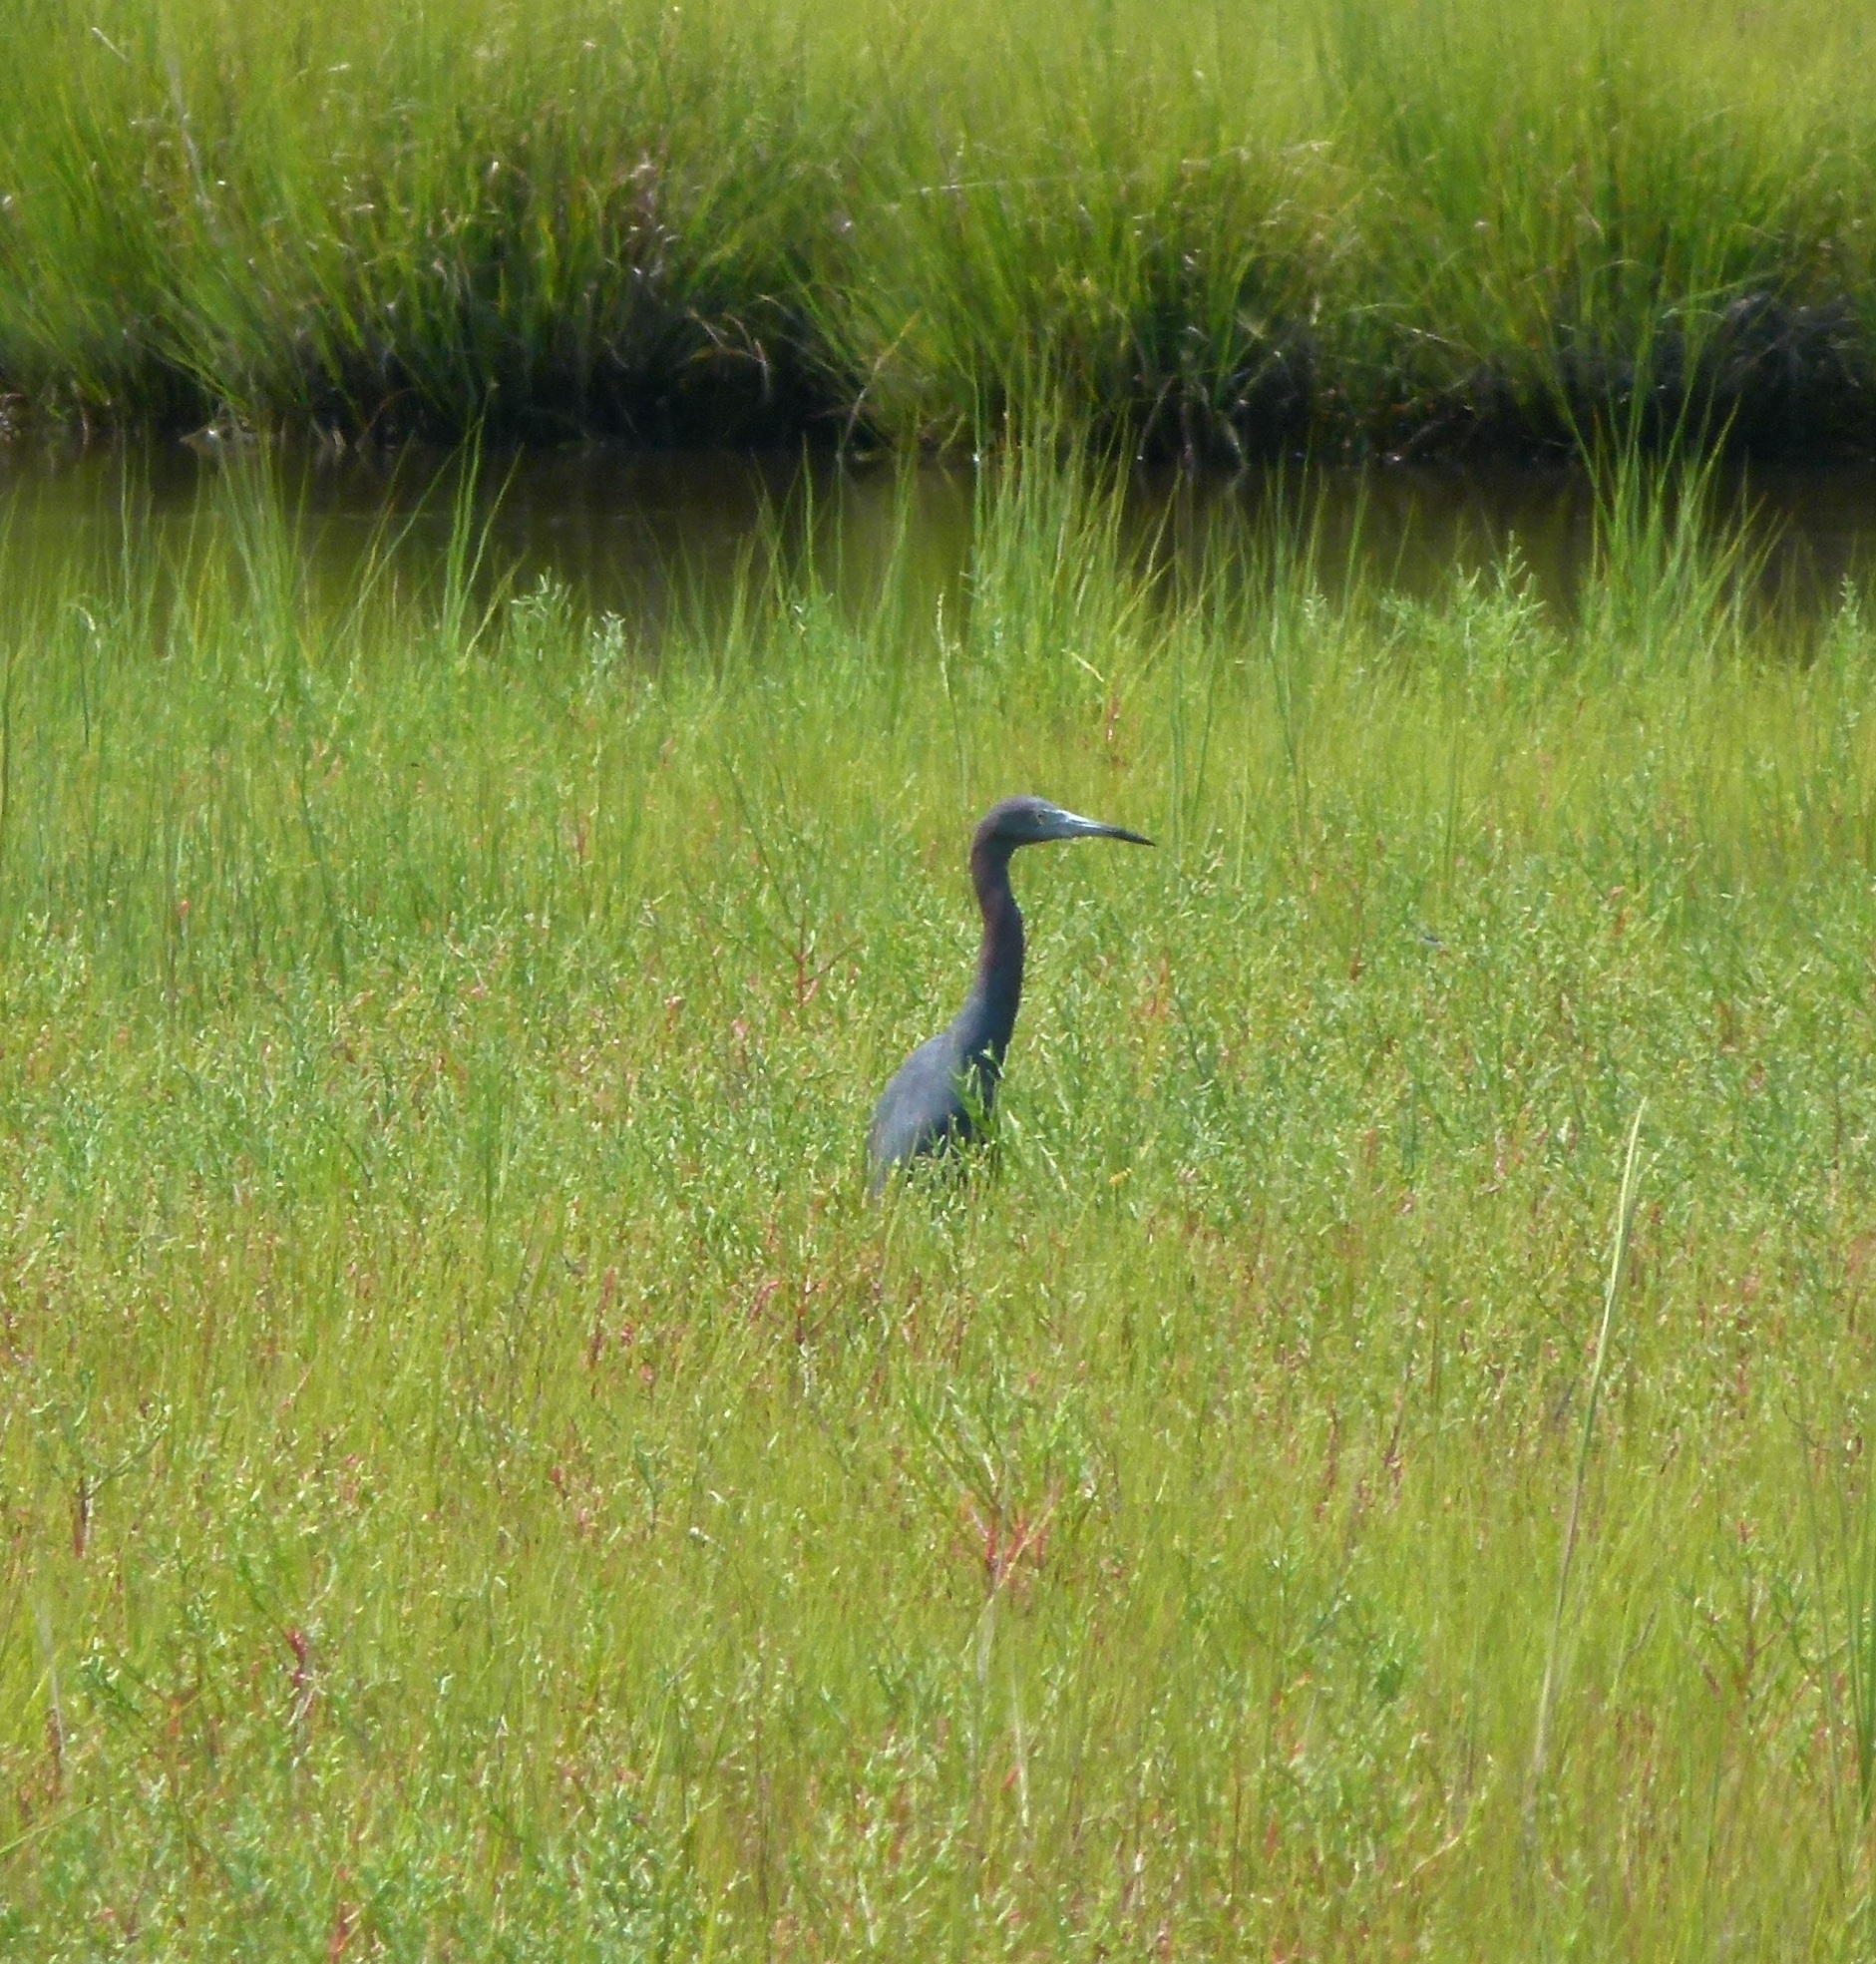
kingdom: Animalia
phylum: Chordata
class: Aves
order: Pelecaniformes
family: Ardeidae
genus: Egretta
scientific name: Egretta caerulea
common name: Little blue heron
